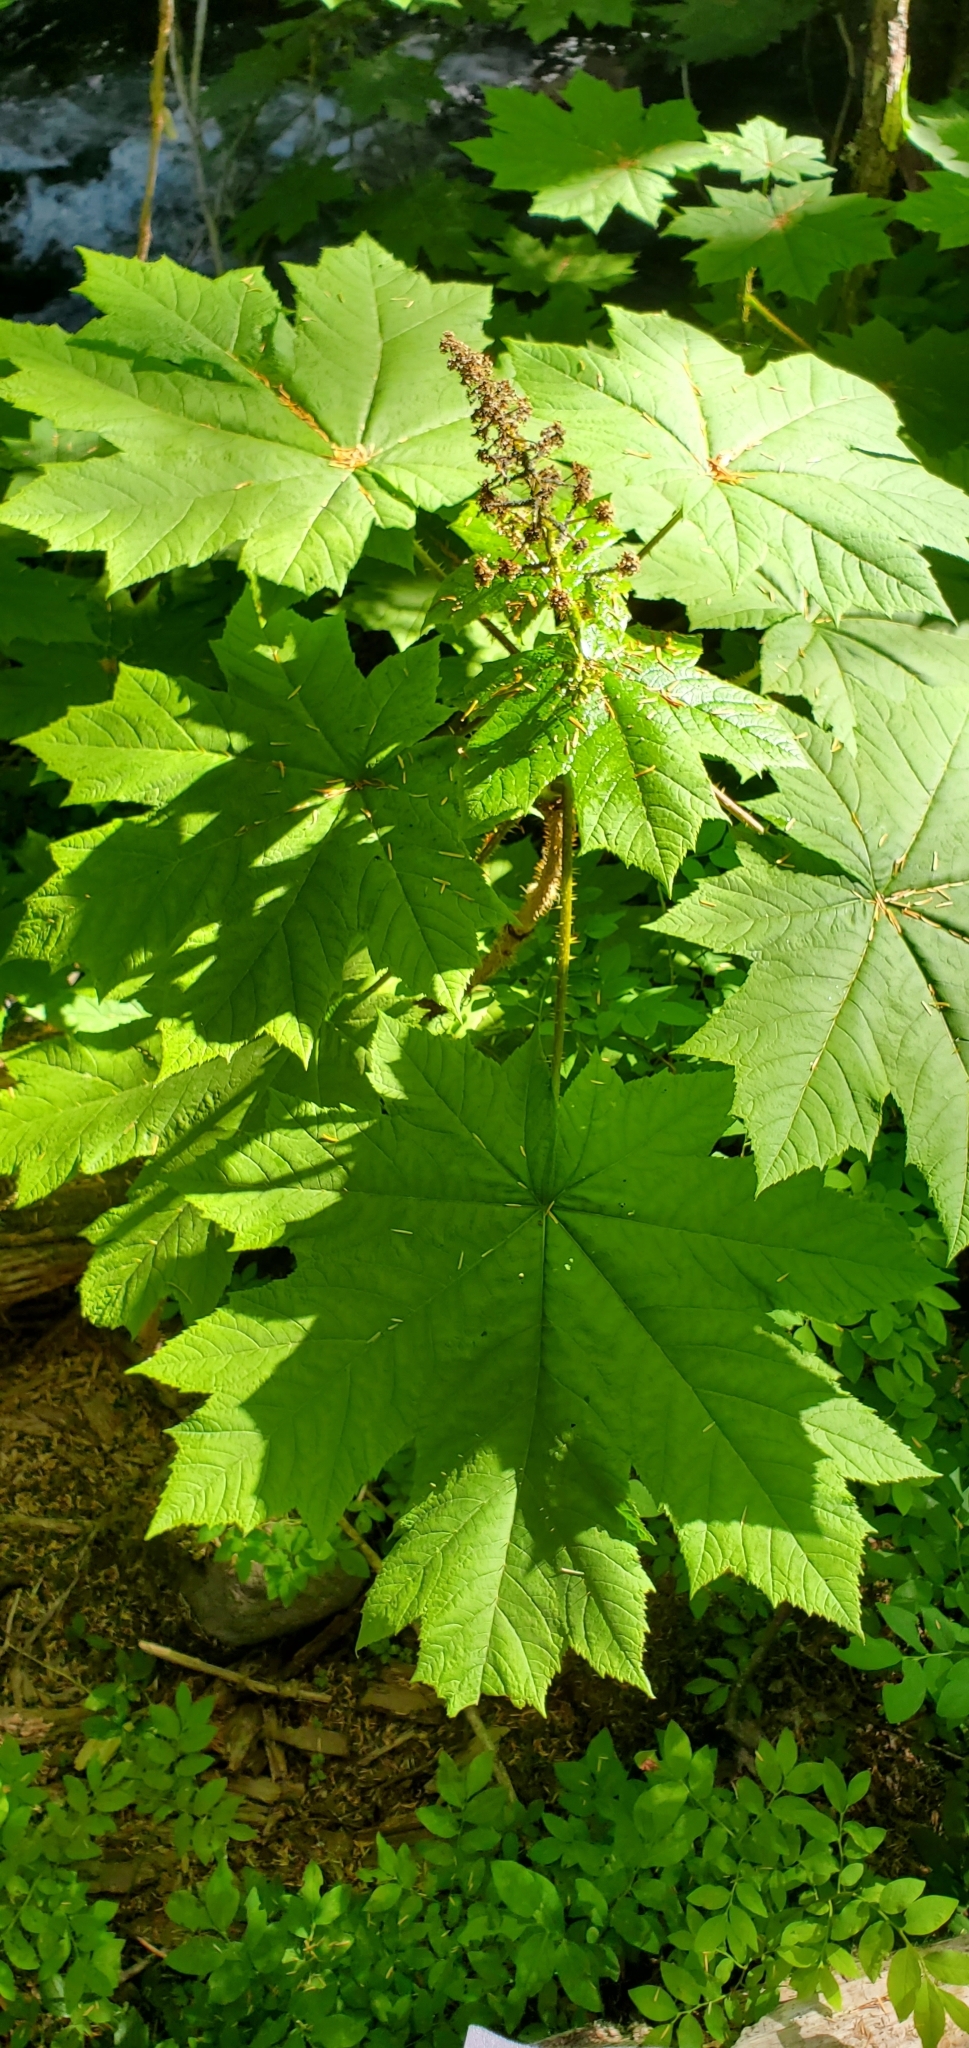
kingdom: Plantae
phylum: Tracheophyta
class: Magnoliopsida
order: Apiales
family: Araliaceae
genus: Oplopanax
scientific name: Oplopanax horridus
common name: Devil's walking-stick
